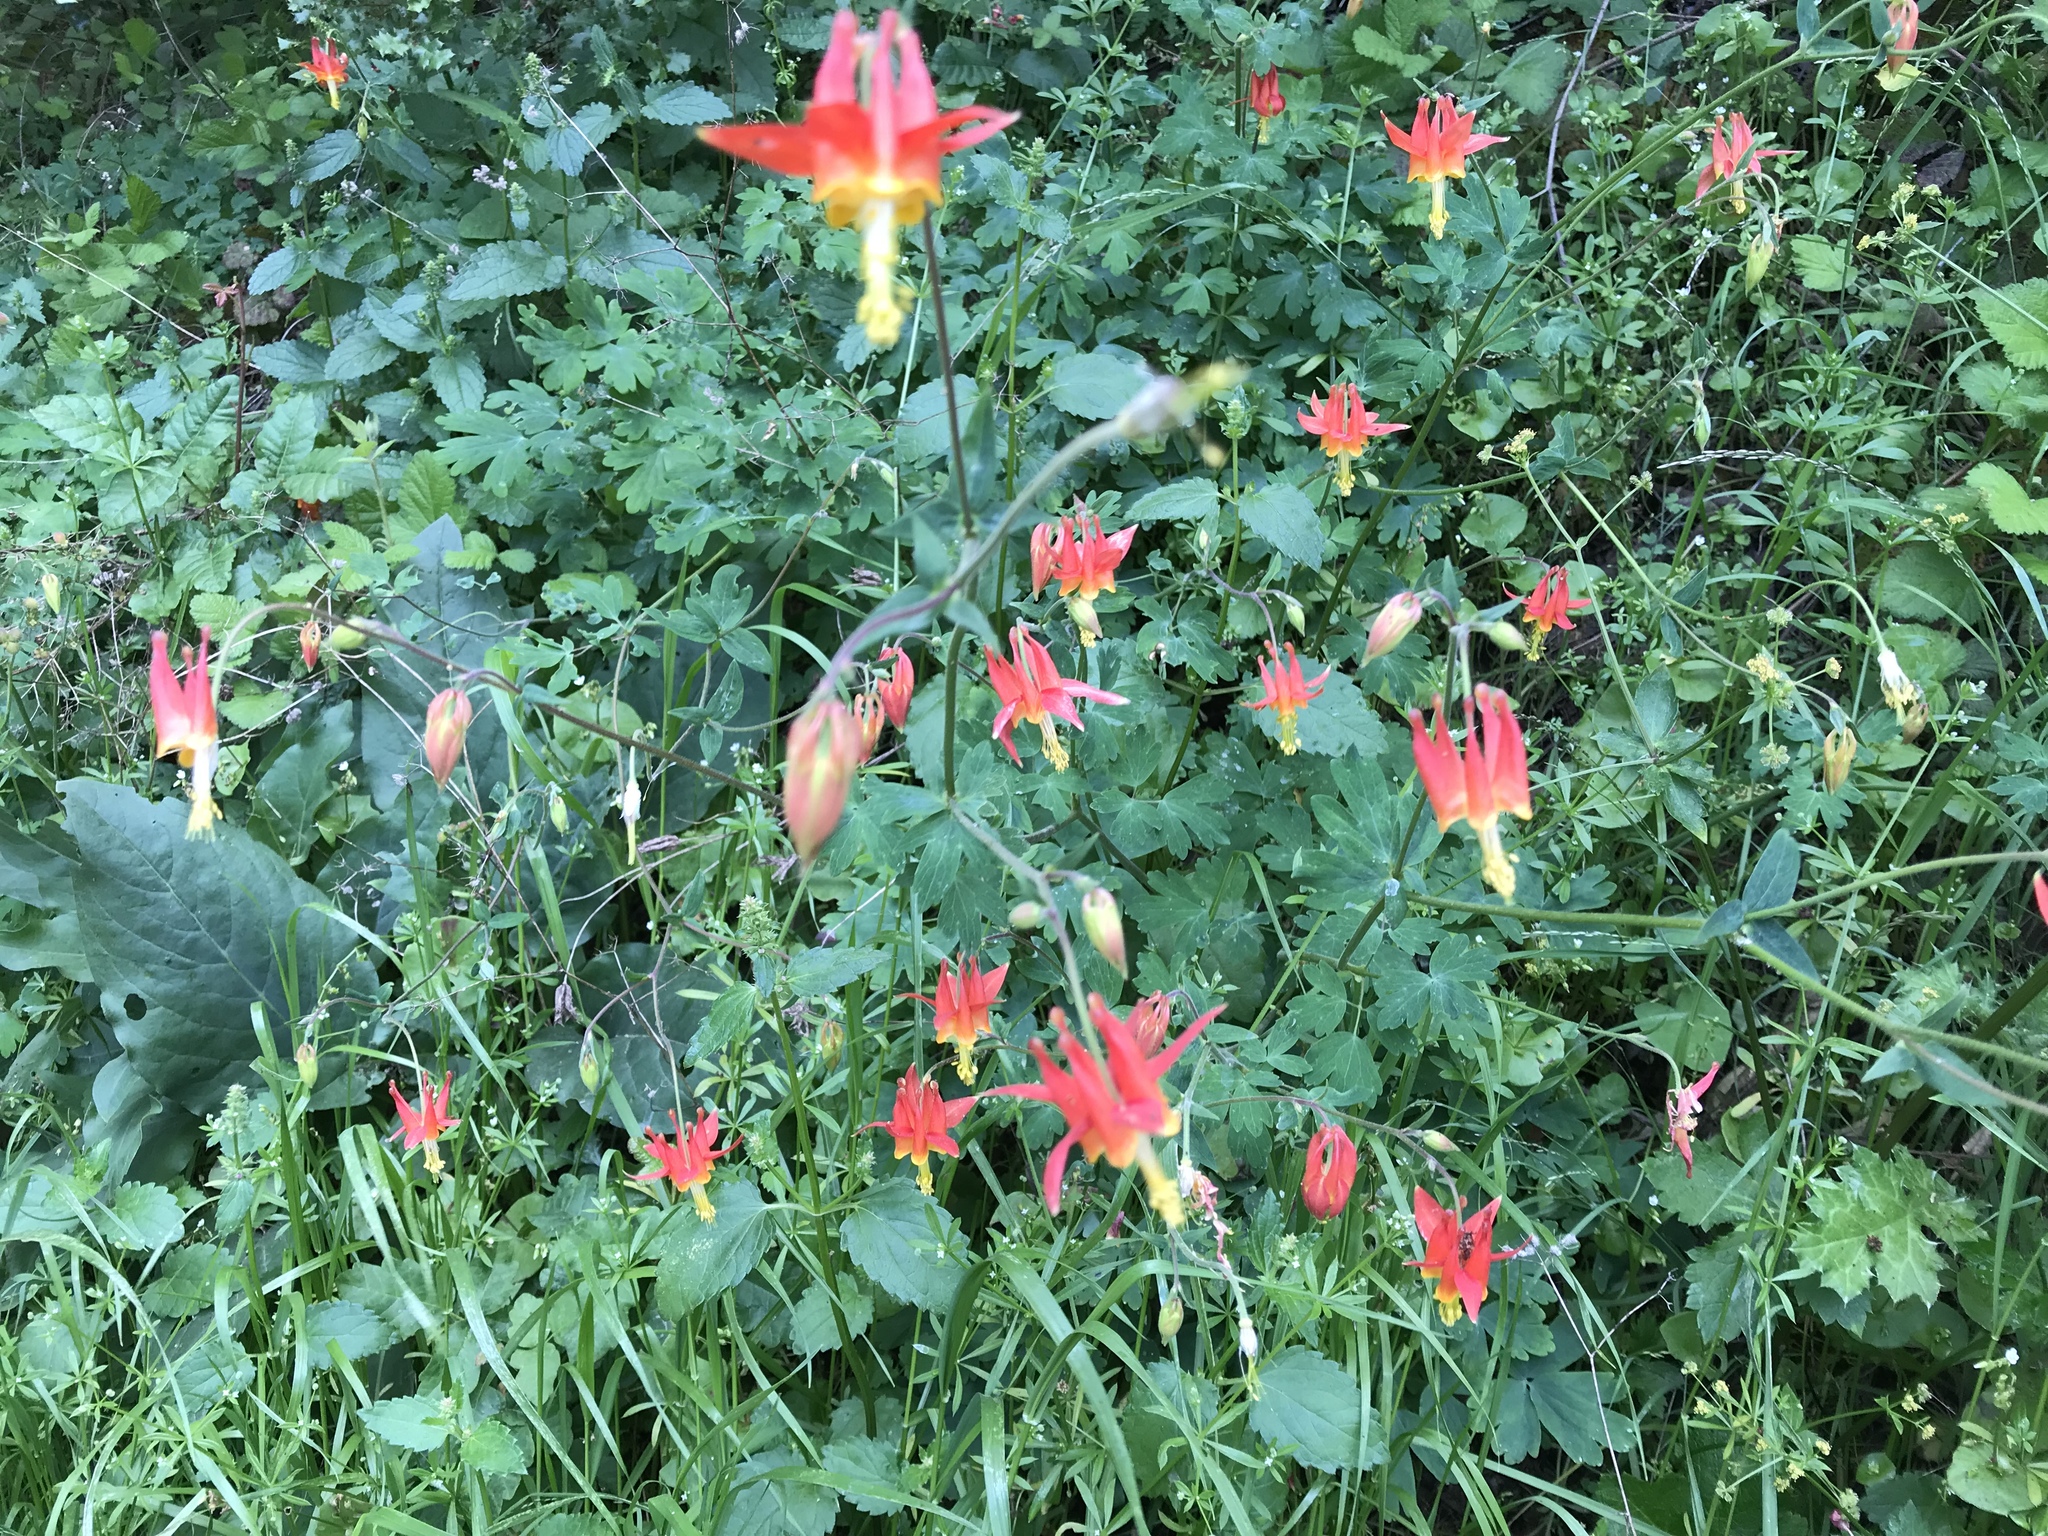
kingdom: Plantae
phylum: Tracheophyta
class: Magnoliopsida
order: Ranunculales
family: Ranunculaceae
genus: Aquilegia
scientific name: Aquilegia formosa
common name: Sitka columbine
